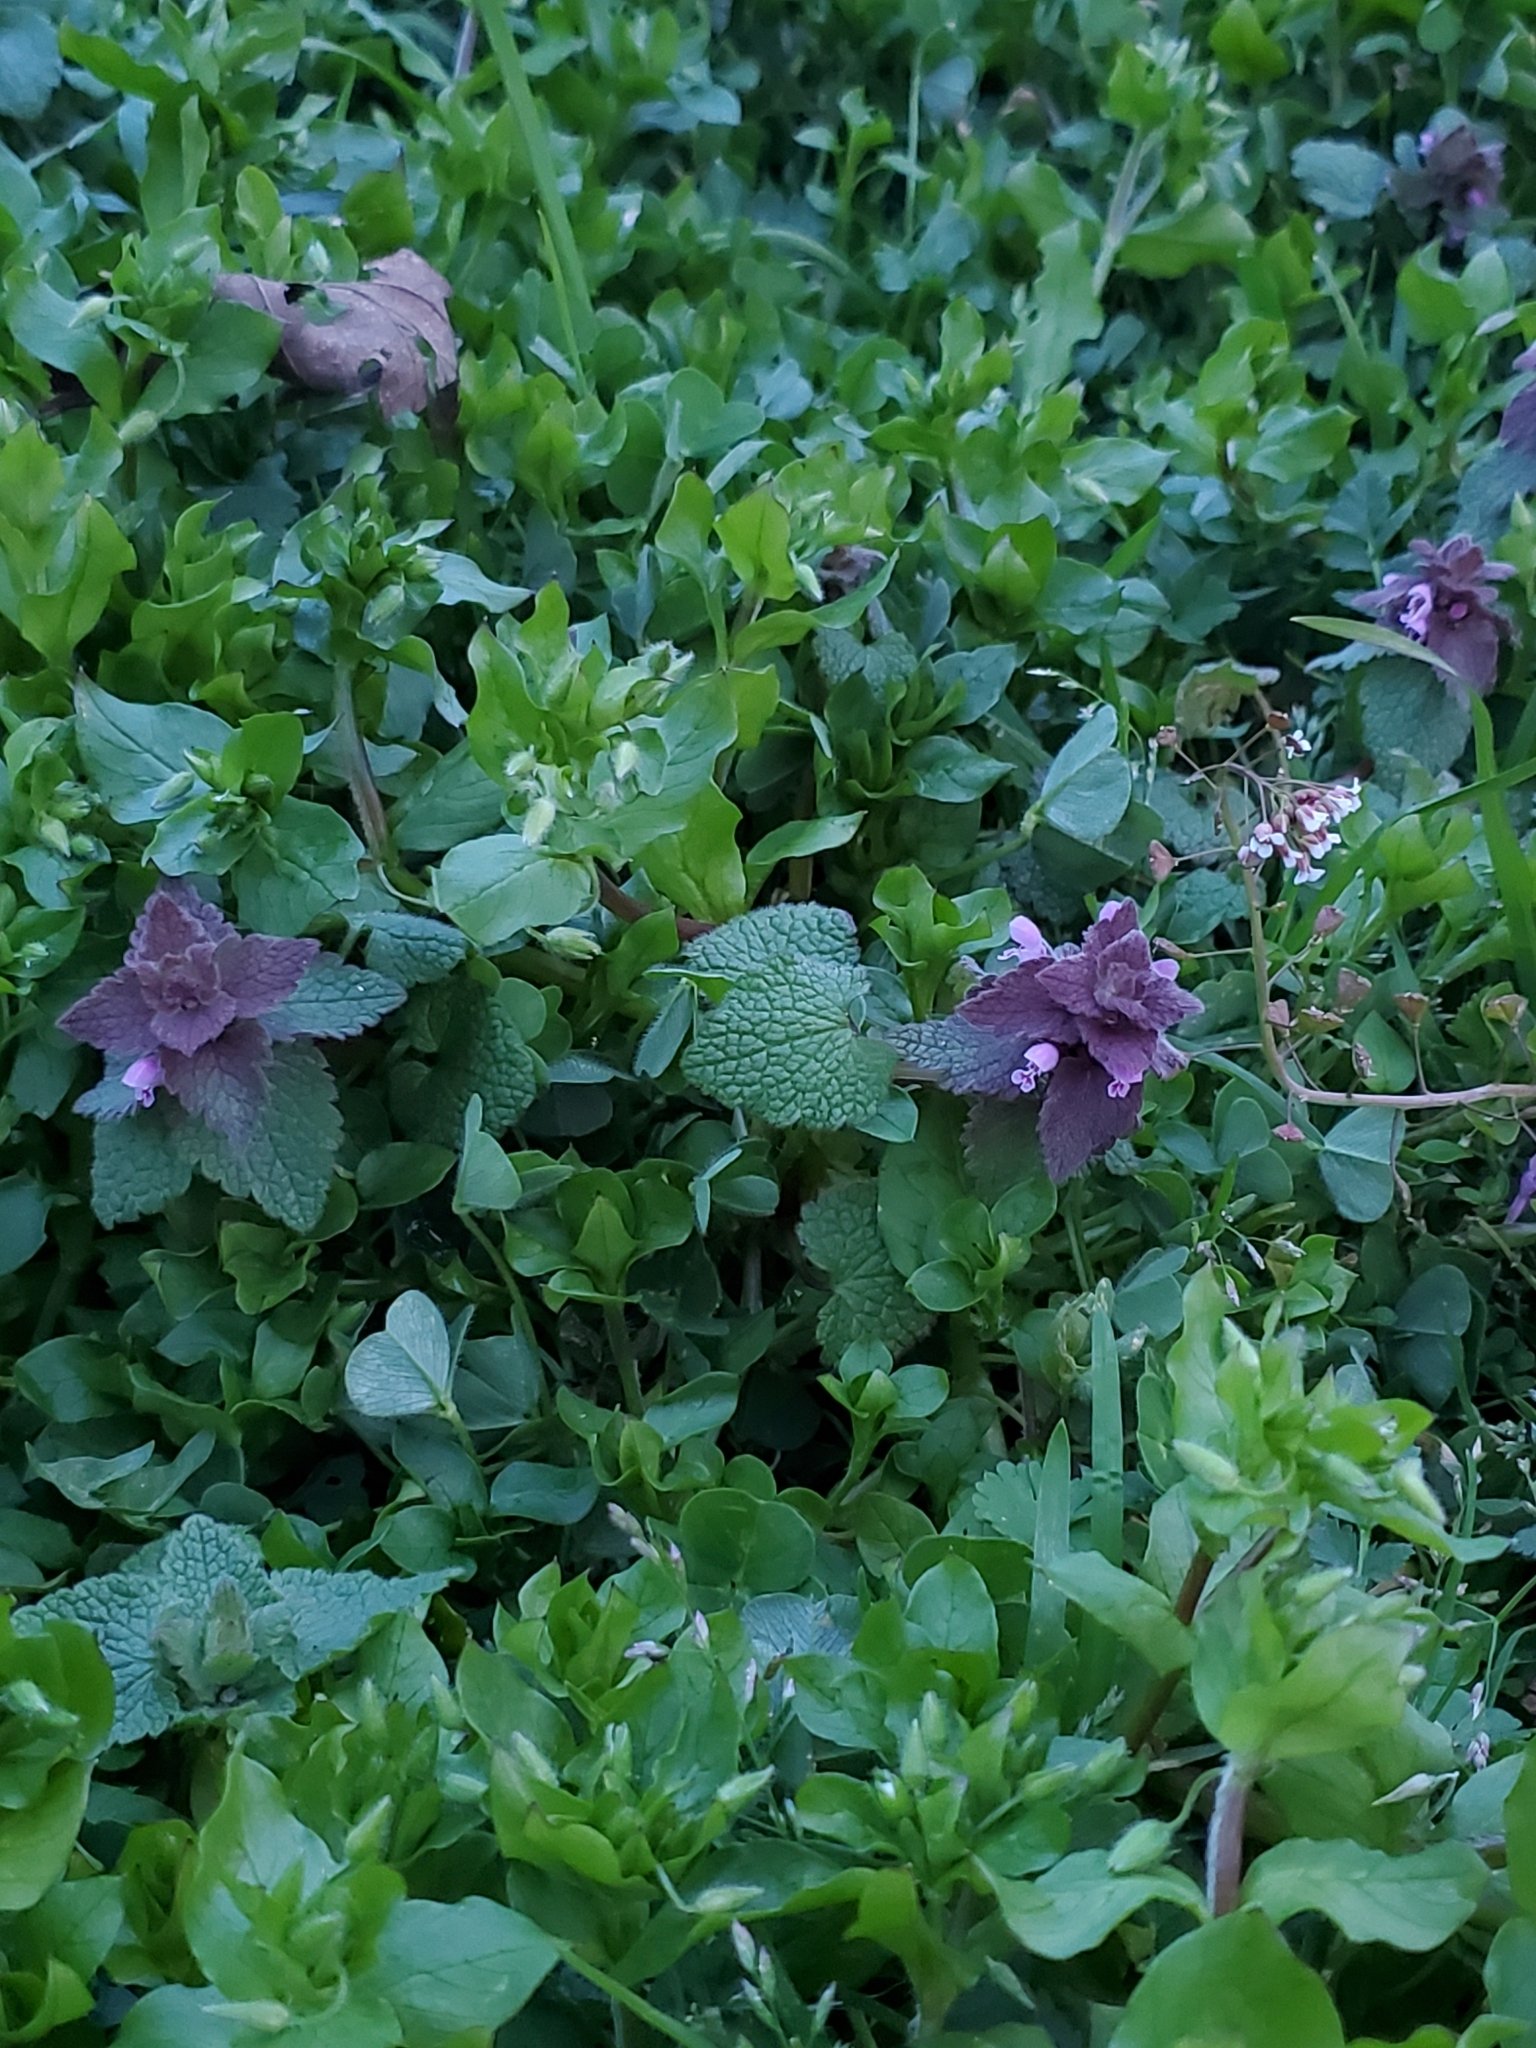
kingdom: Plantae
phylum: Tracheophyta
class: Magnoliopsida
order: Lamiales
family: Lamiaceae
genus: Lamium
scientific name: Lamium purpureum
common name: Red dead-nettle
